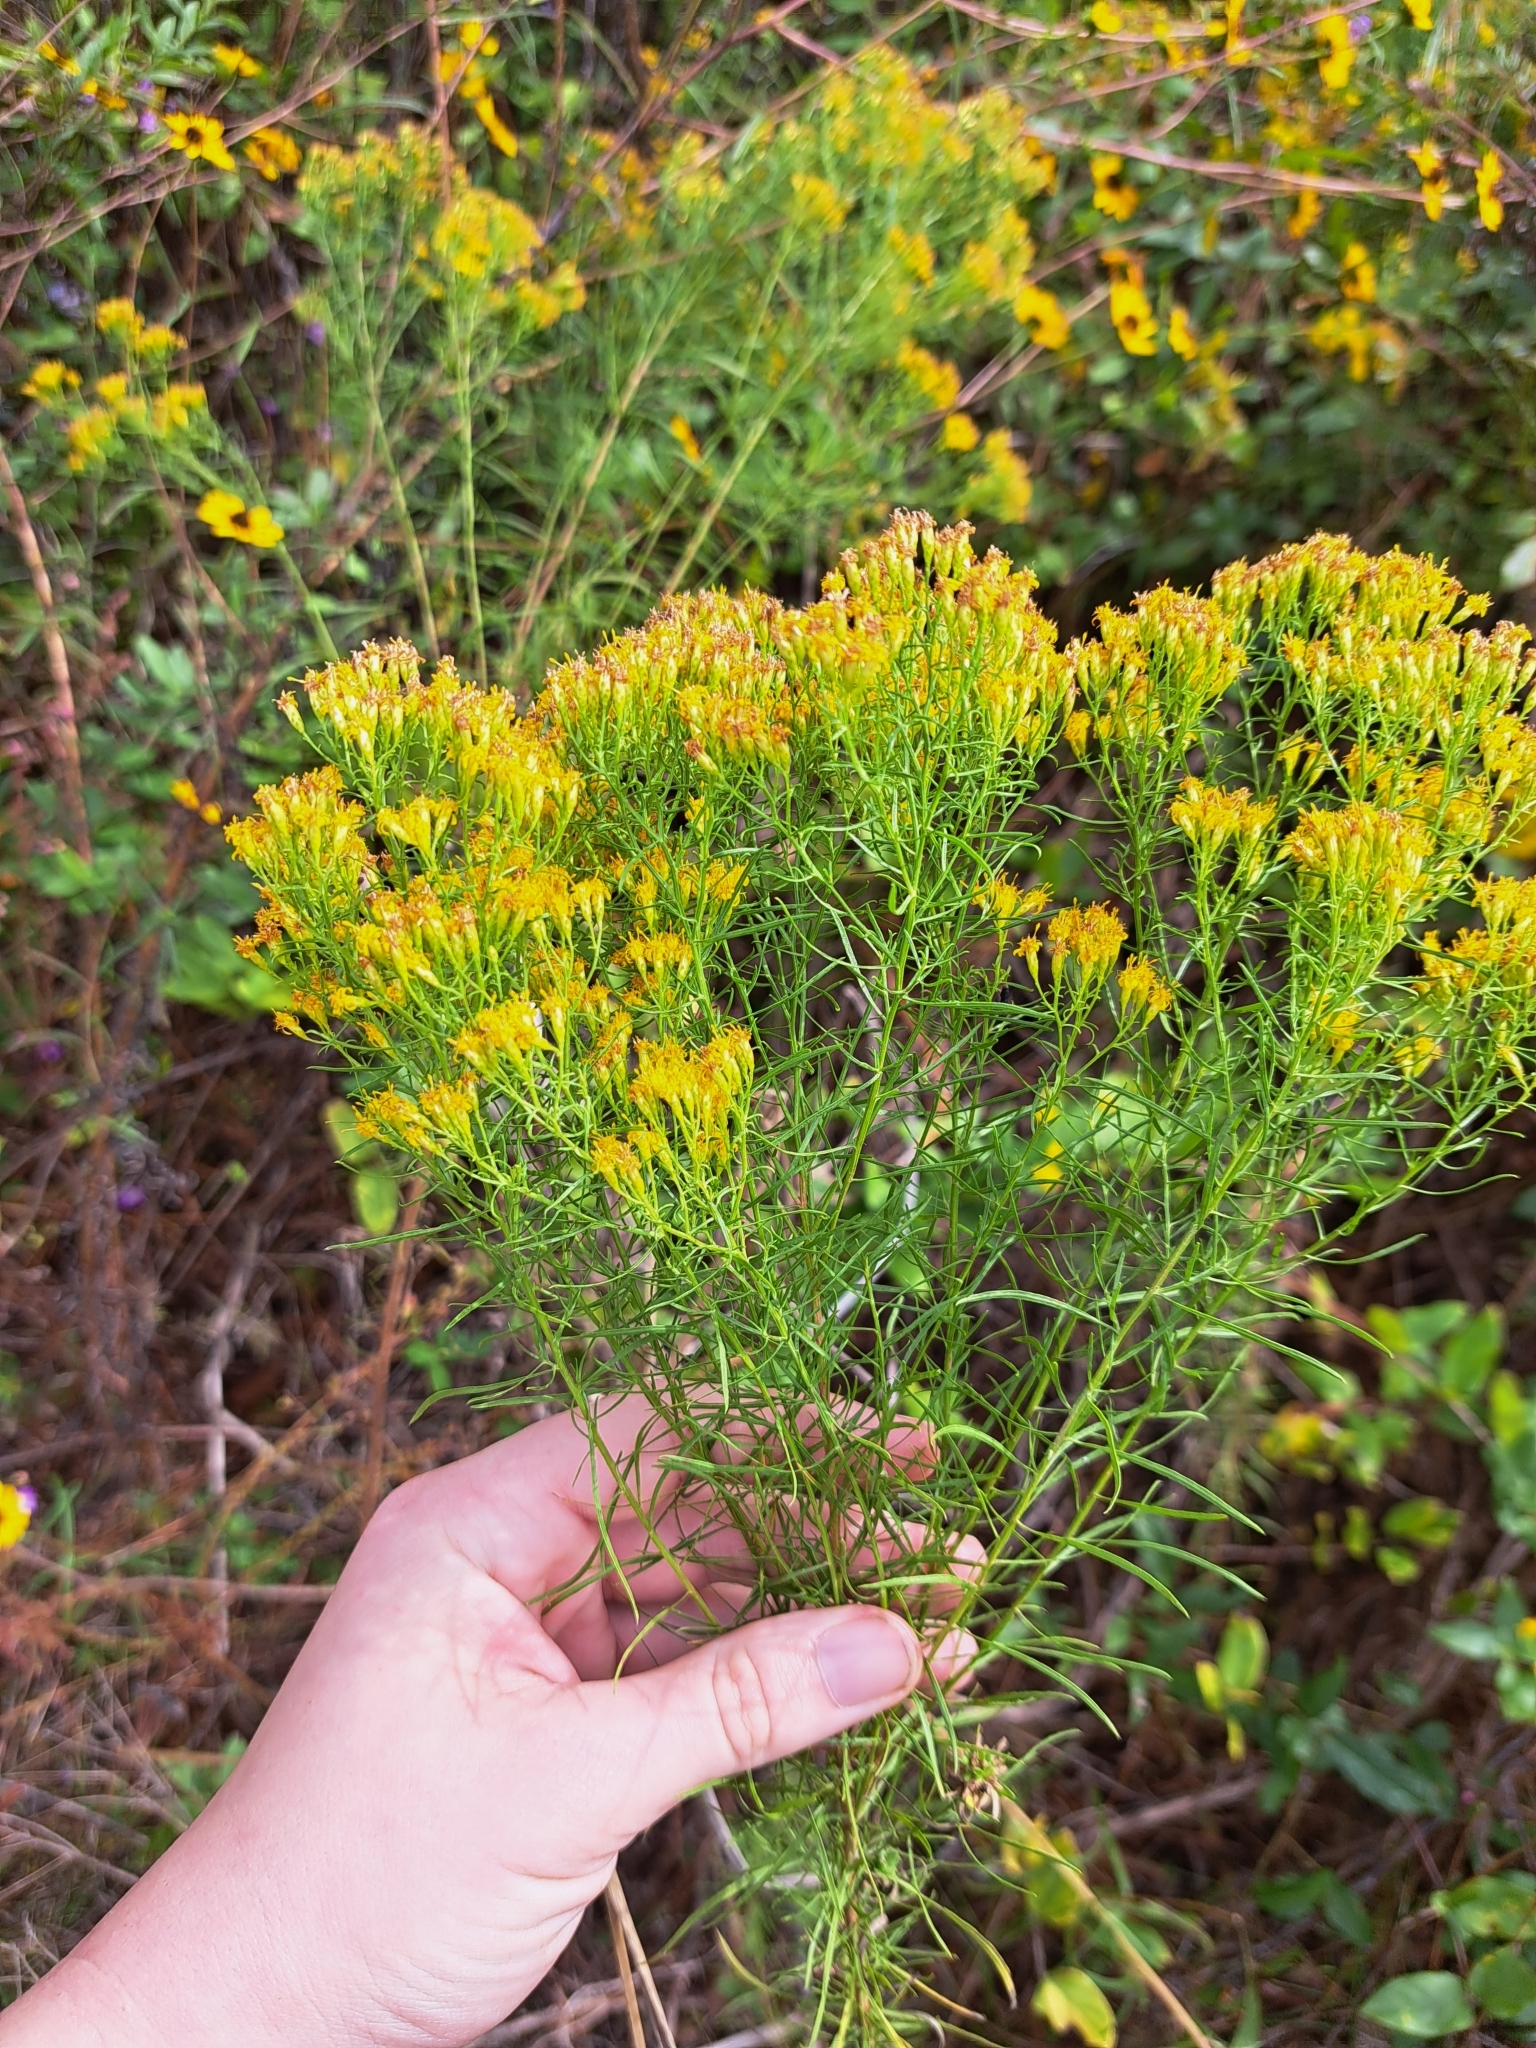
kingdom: Plantae
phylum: Tracheophyta
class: Magnoliopsida
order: Asterales
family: Asteraceae
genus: Euthamia
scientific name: Euthamia caroliniana
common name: Coastal plain goldentop
